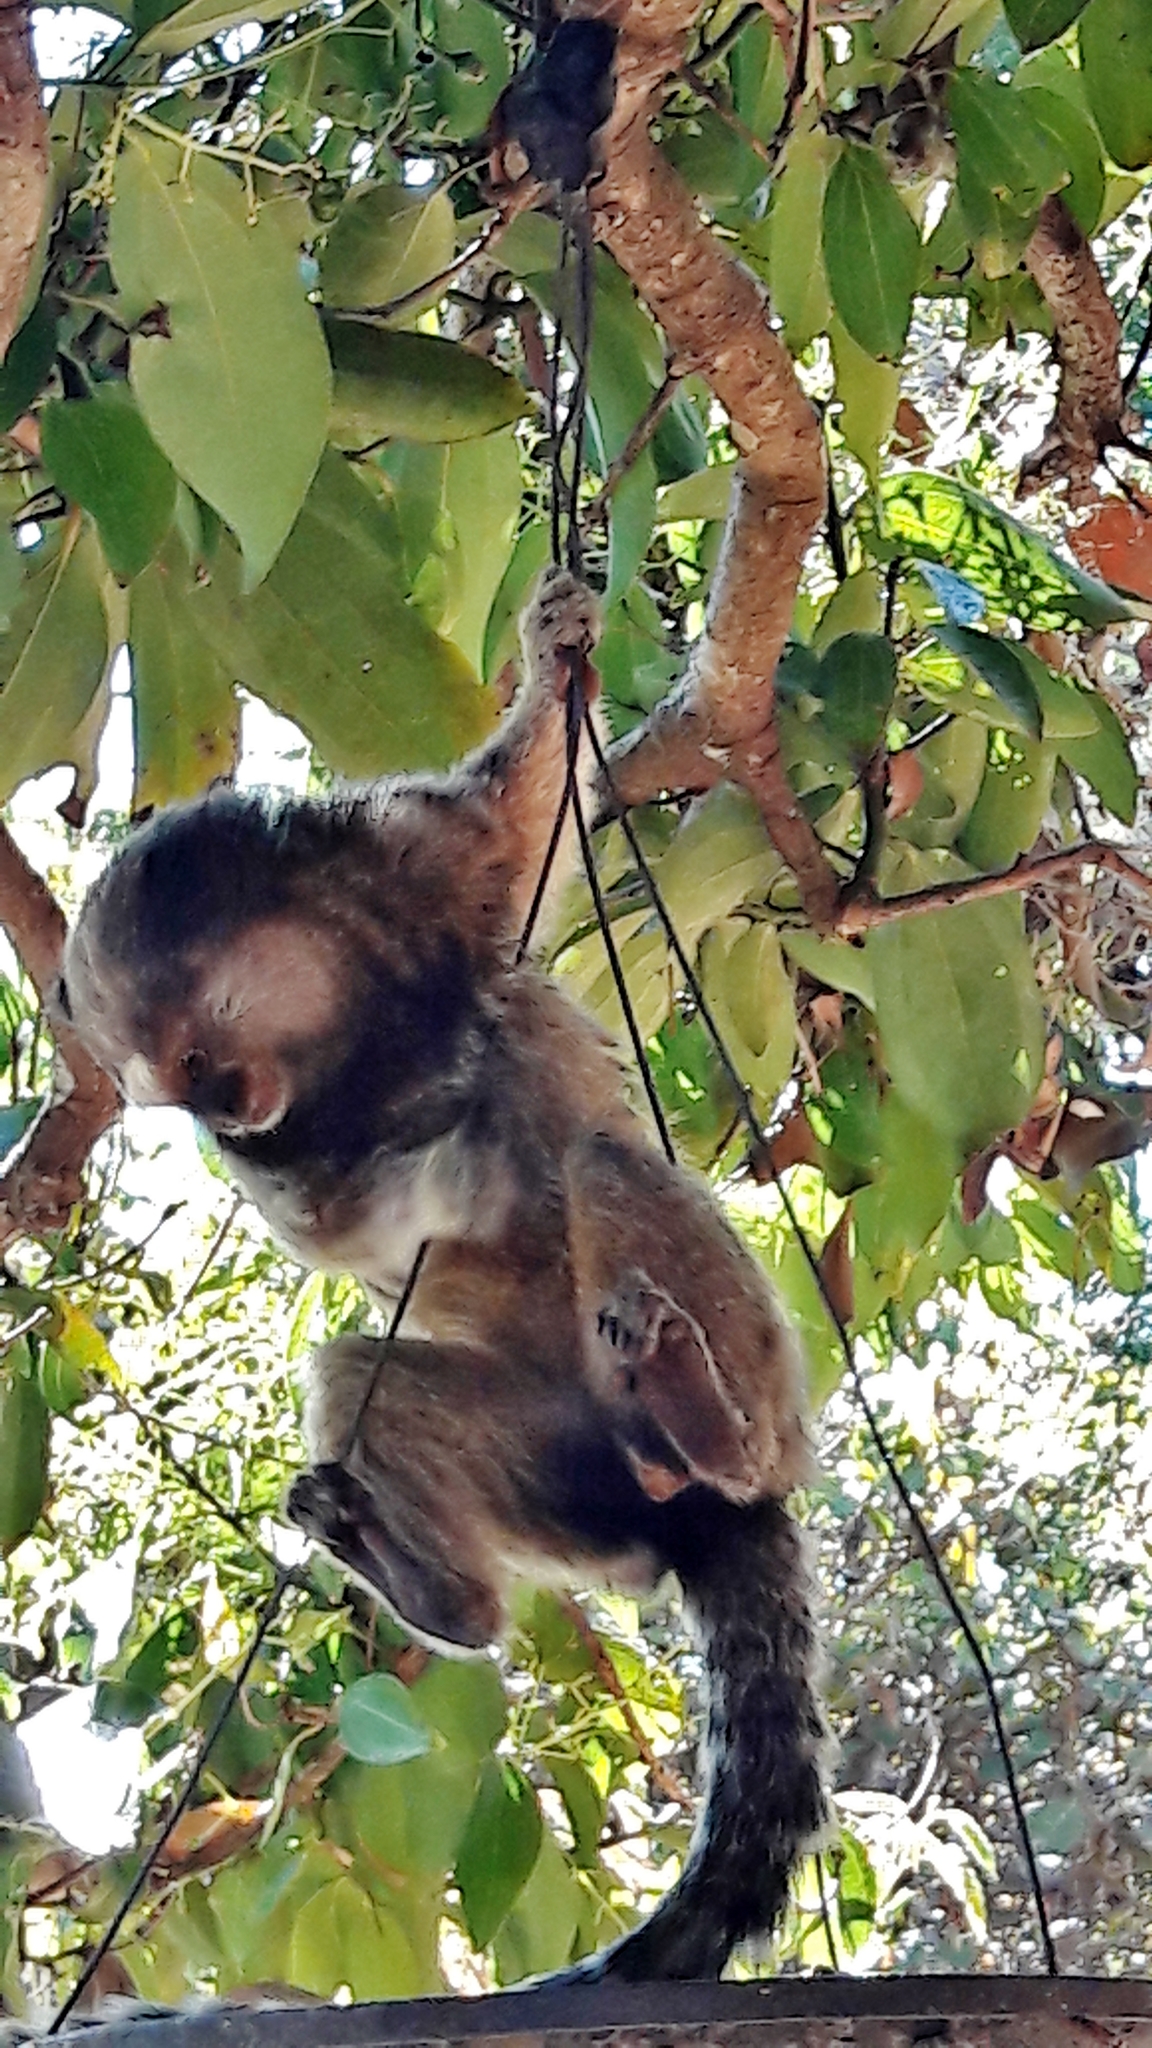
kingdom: Animalia
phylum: Chordata
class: Mammalia
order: Primates
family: Callitrichidae
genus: Callithrix
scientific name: Callithrix penicillata
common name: Black-tufted marmoset
